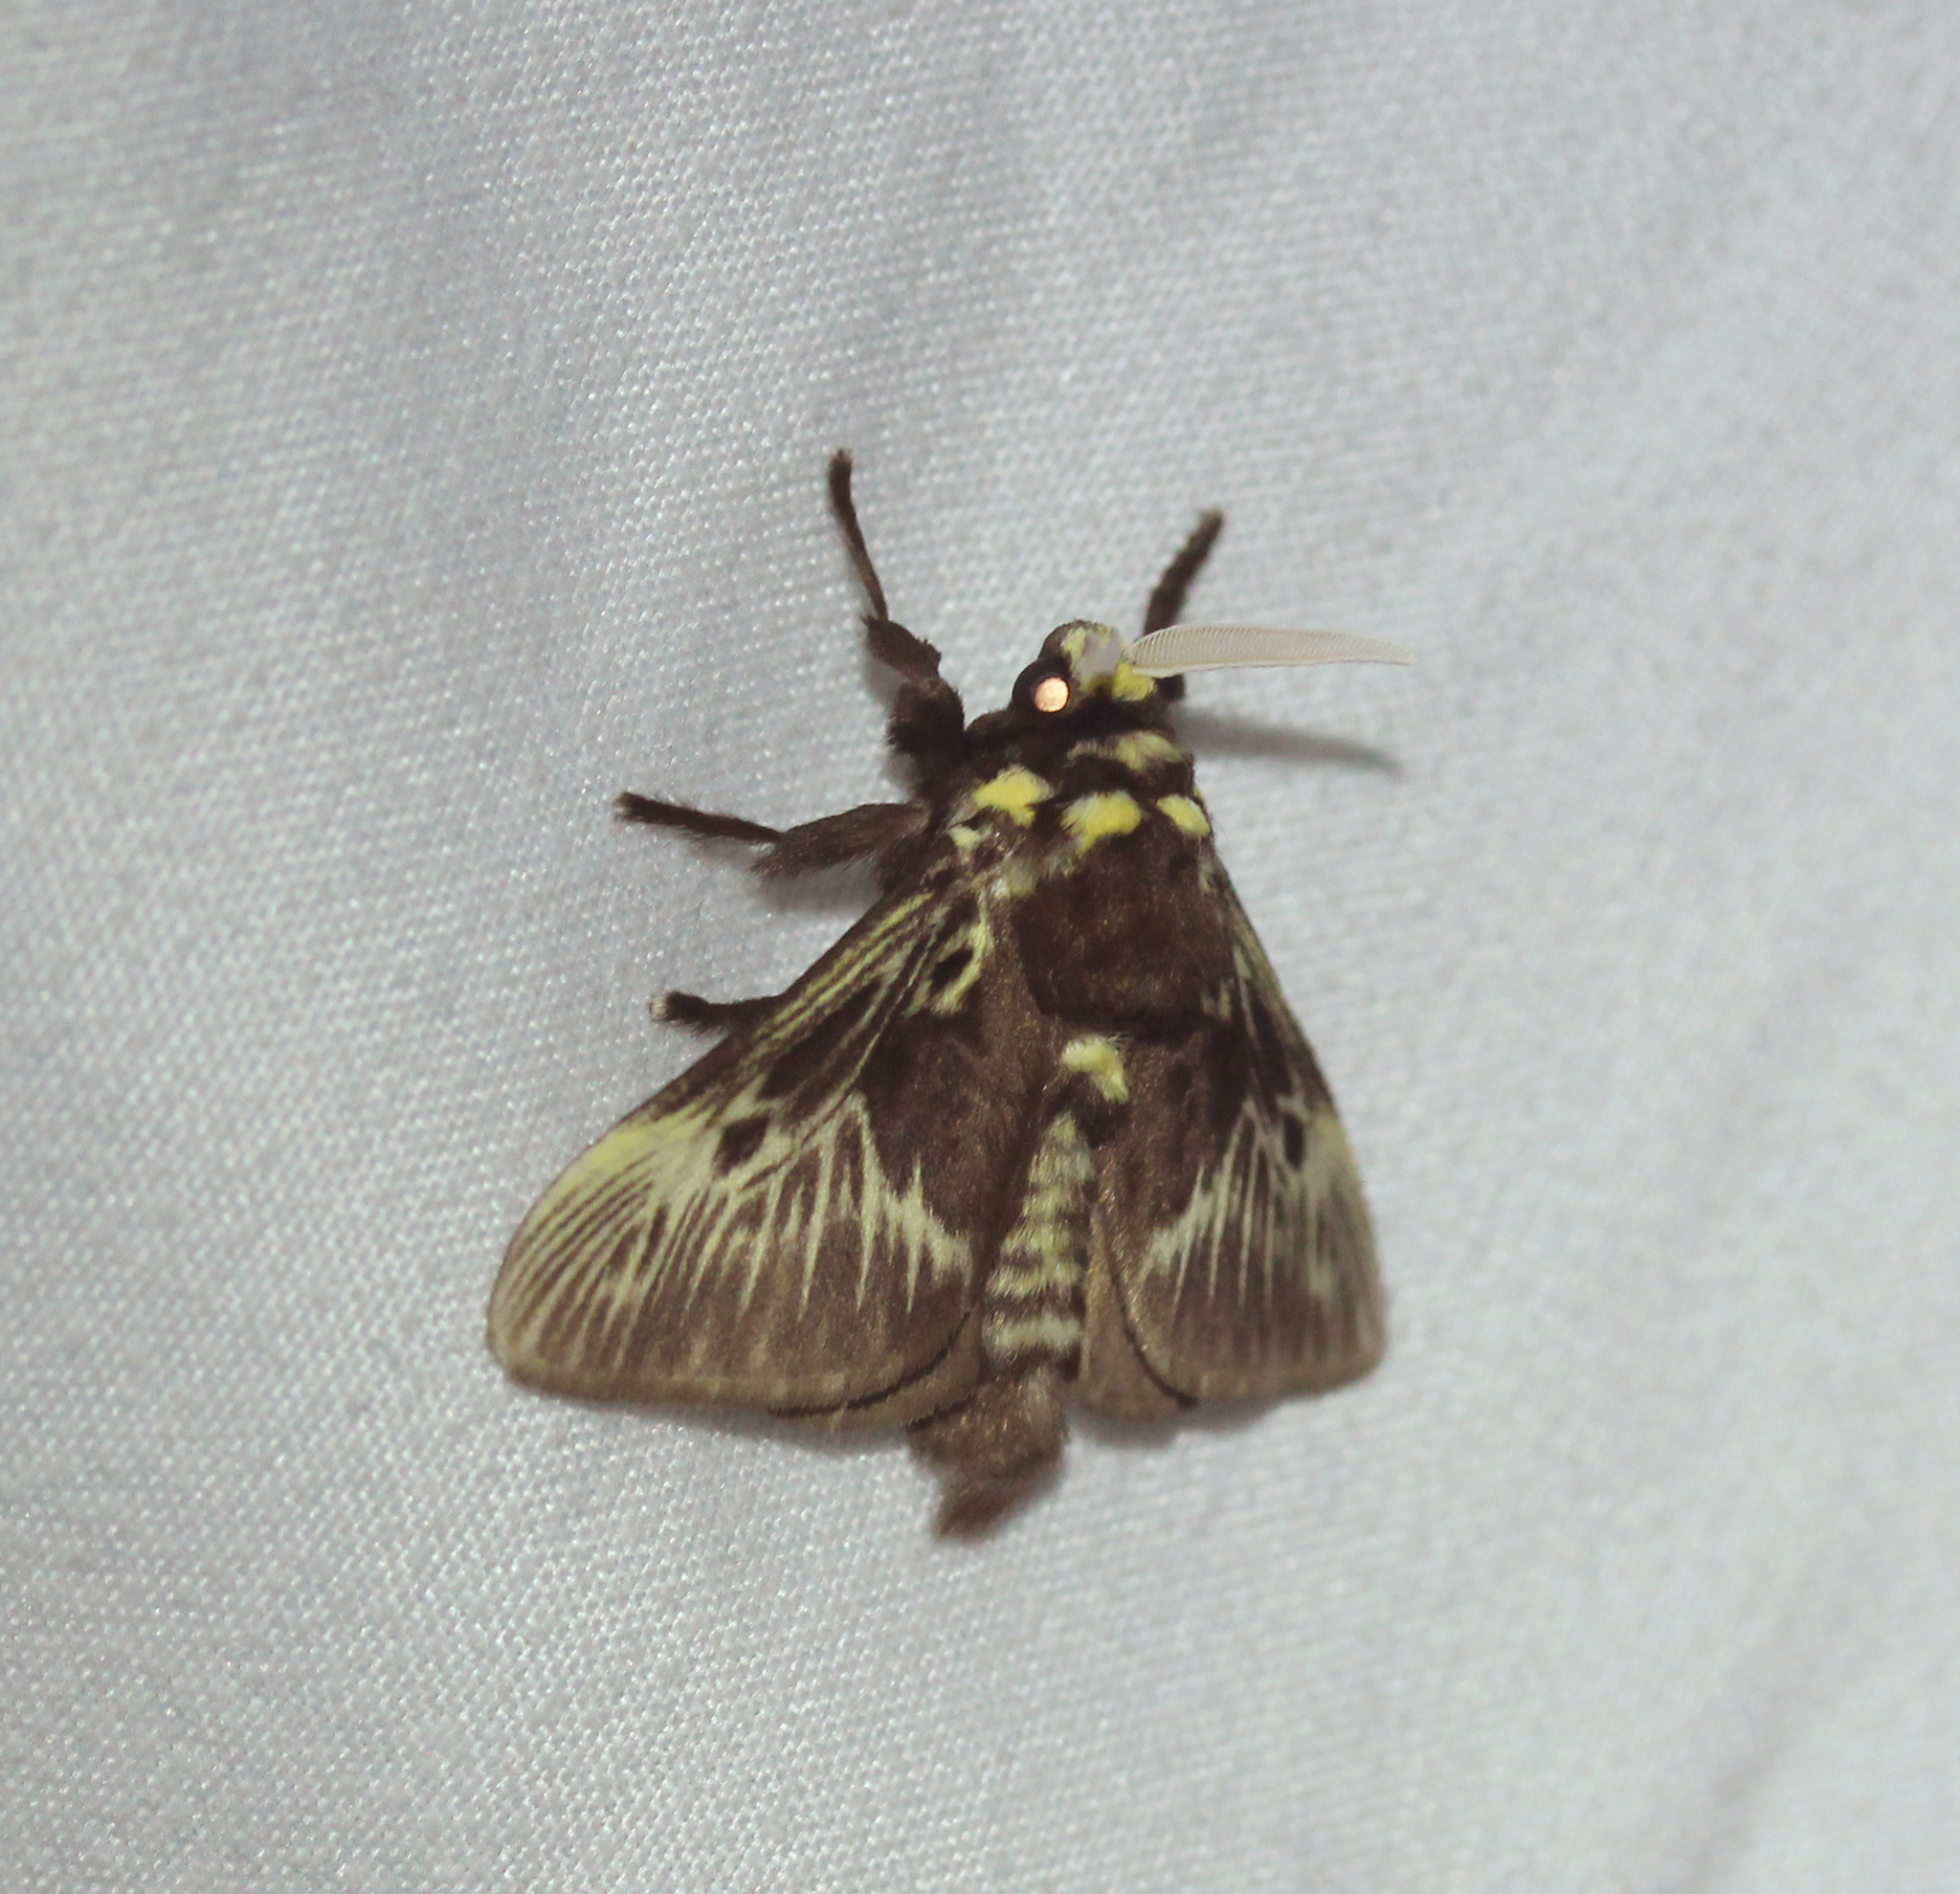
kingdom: Animalia
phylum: Arthropoda
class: Insecta
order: Lepidoptera
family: Megalopygidae
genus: Megalopyge
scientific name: Megalopyge albicollis
